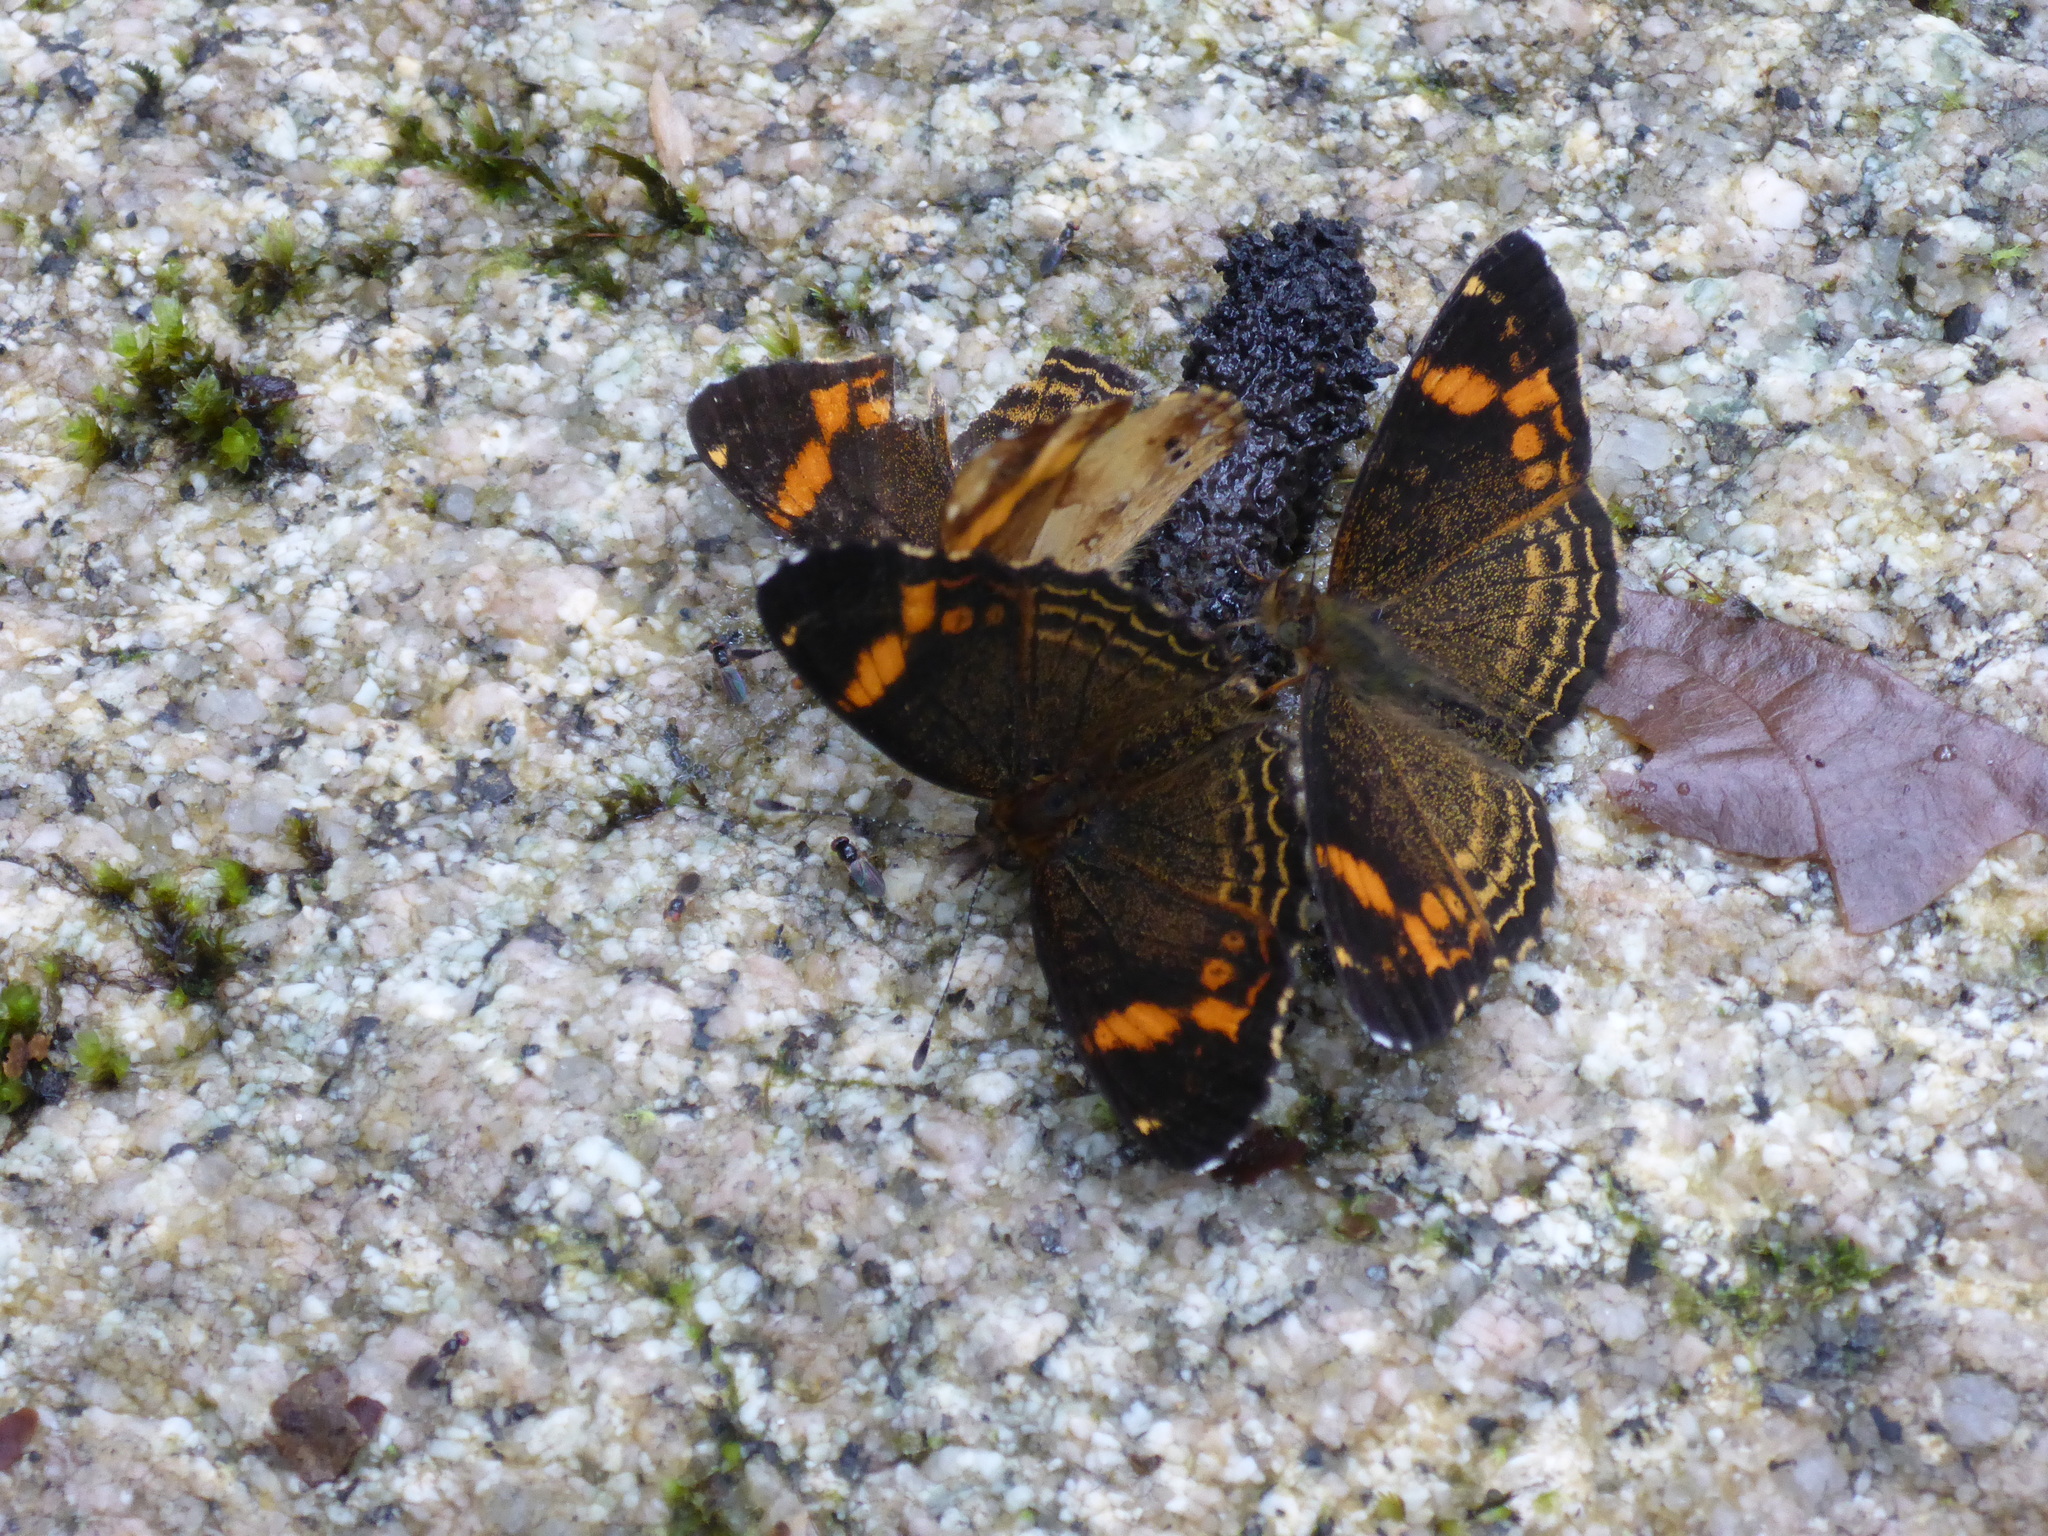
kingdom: Animalia
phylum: Arthropoda
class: Insecta
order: Lepidoptera
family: Nymphalidae
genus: Telenassa
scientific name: Telenassa delphia
